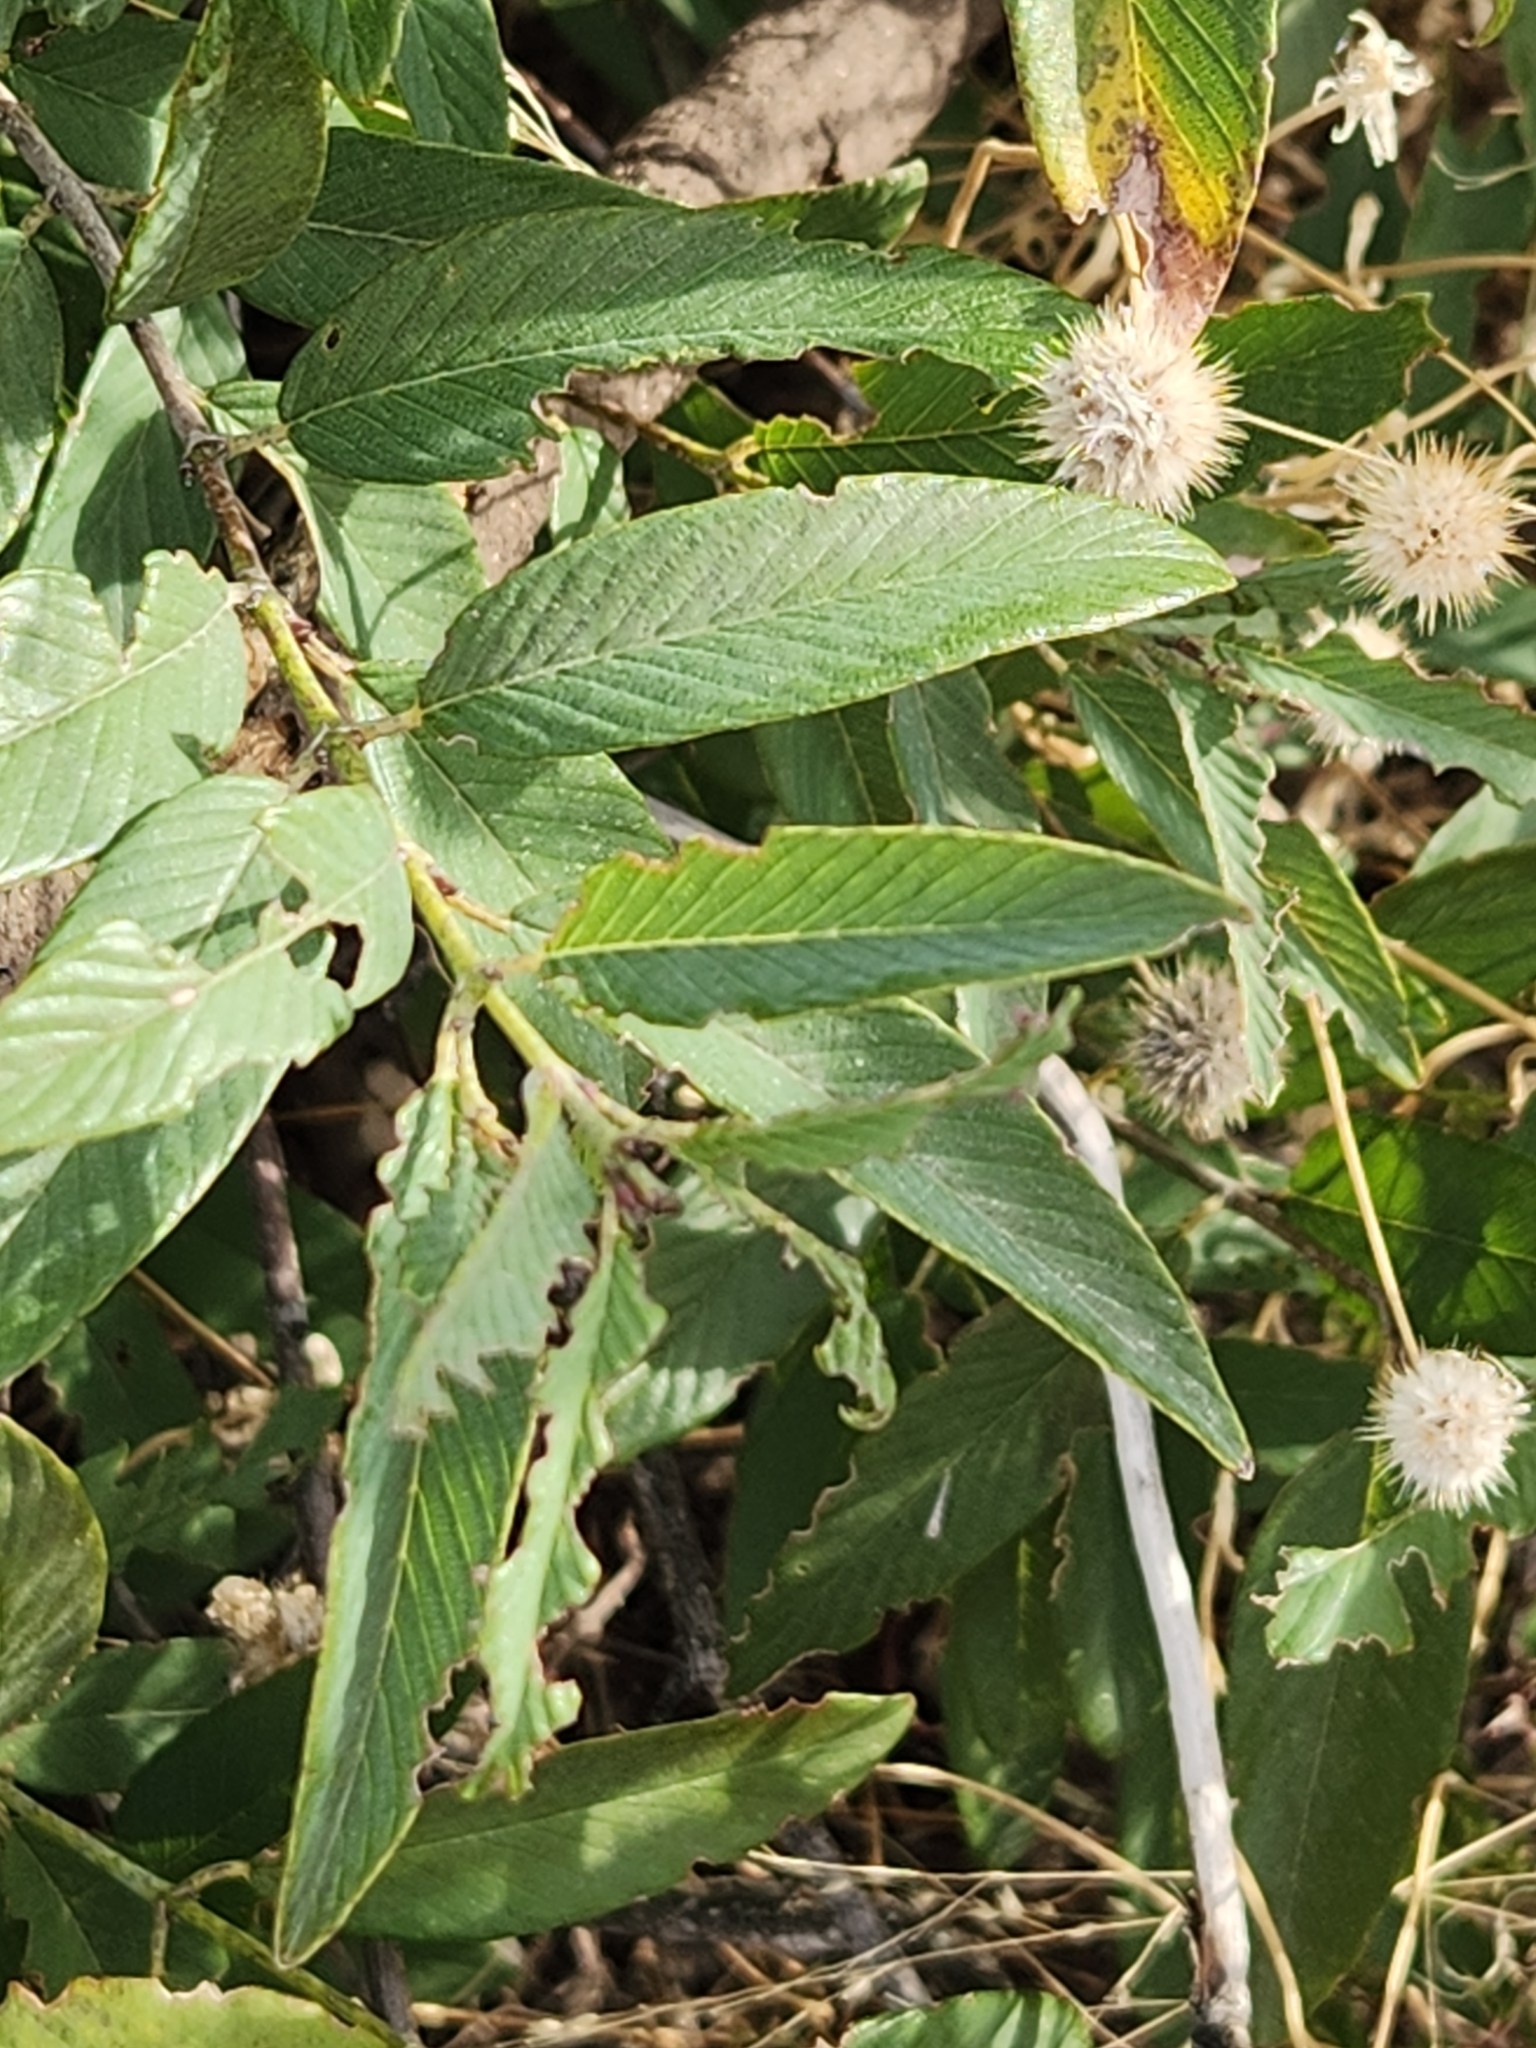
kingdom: Plantae
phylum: Tracheophyta
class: Magnoliopsida
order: Rosales
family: Rhamnaceae
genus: Karwinskia
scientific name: Karwinskia humboldtiana
